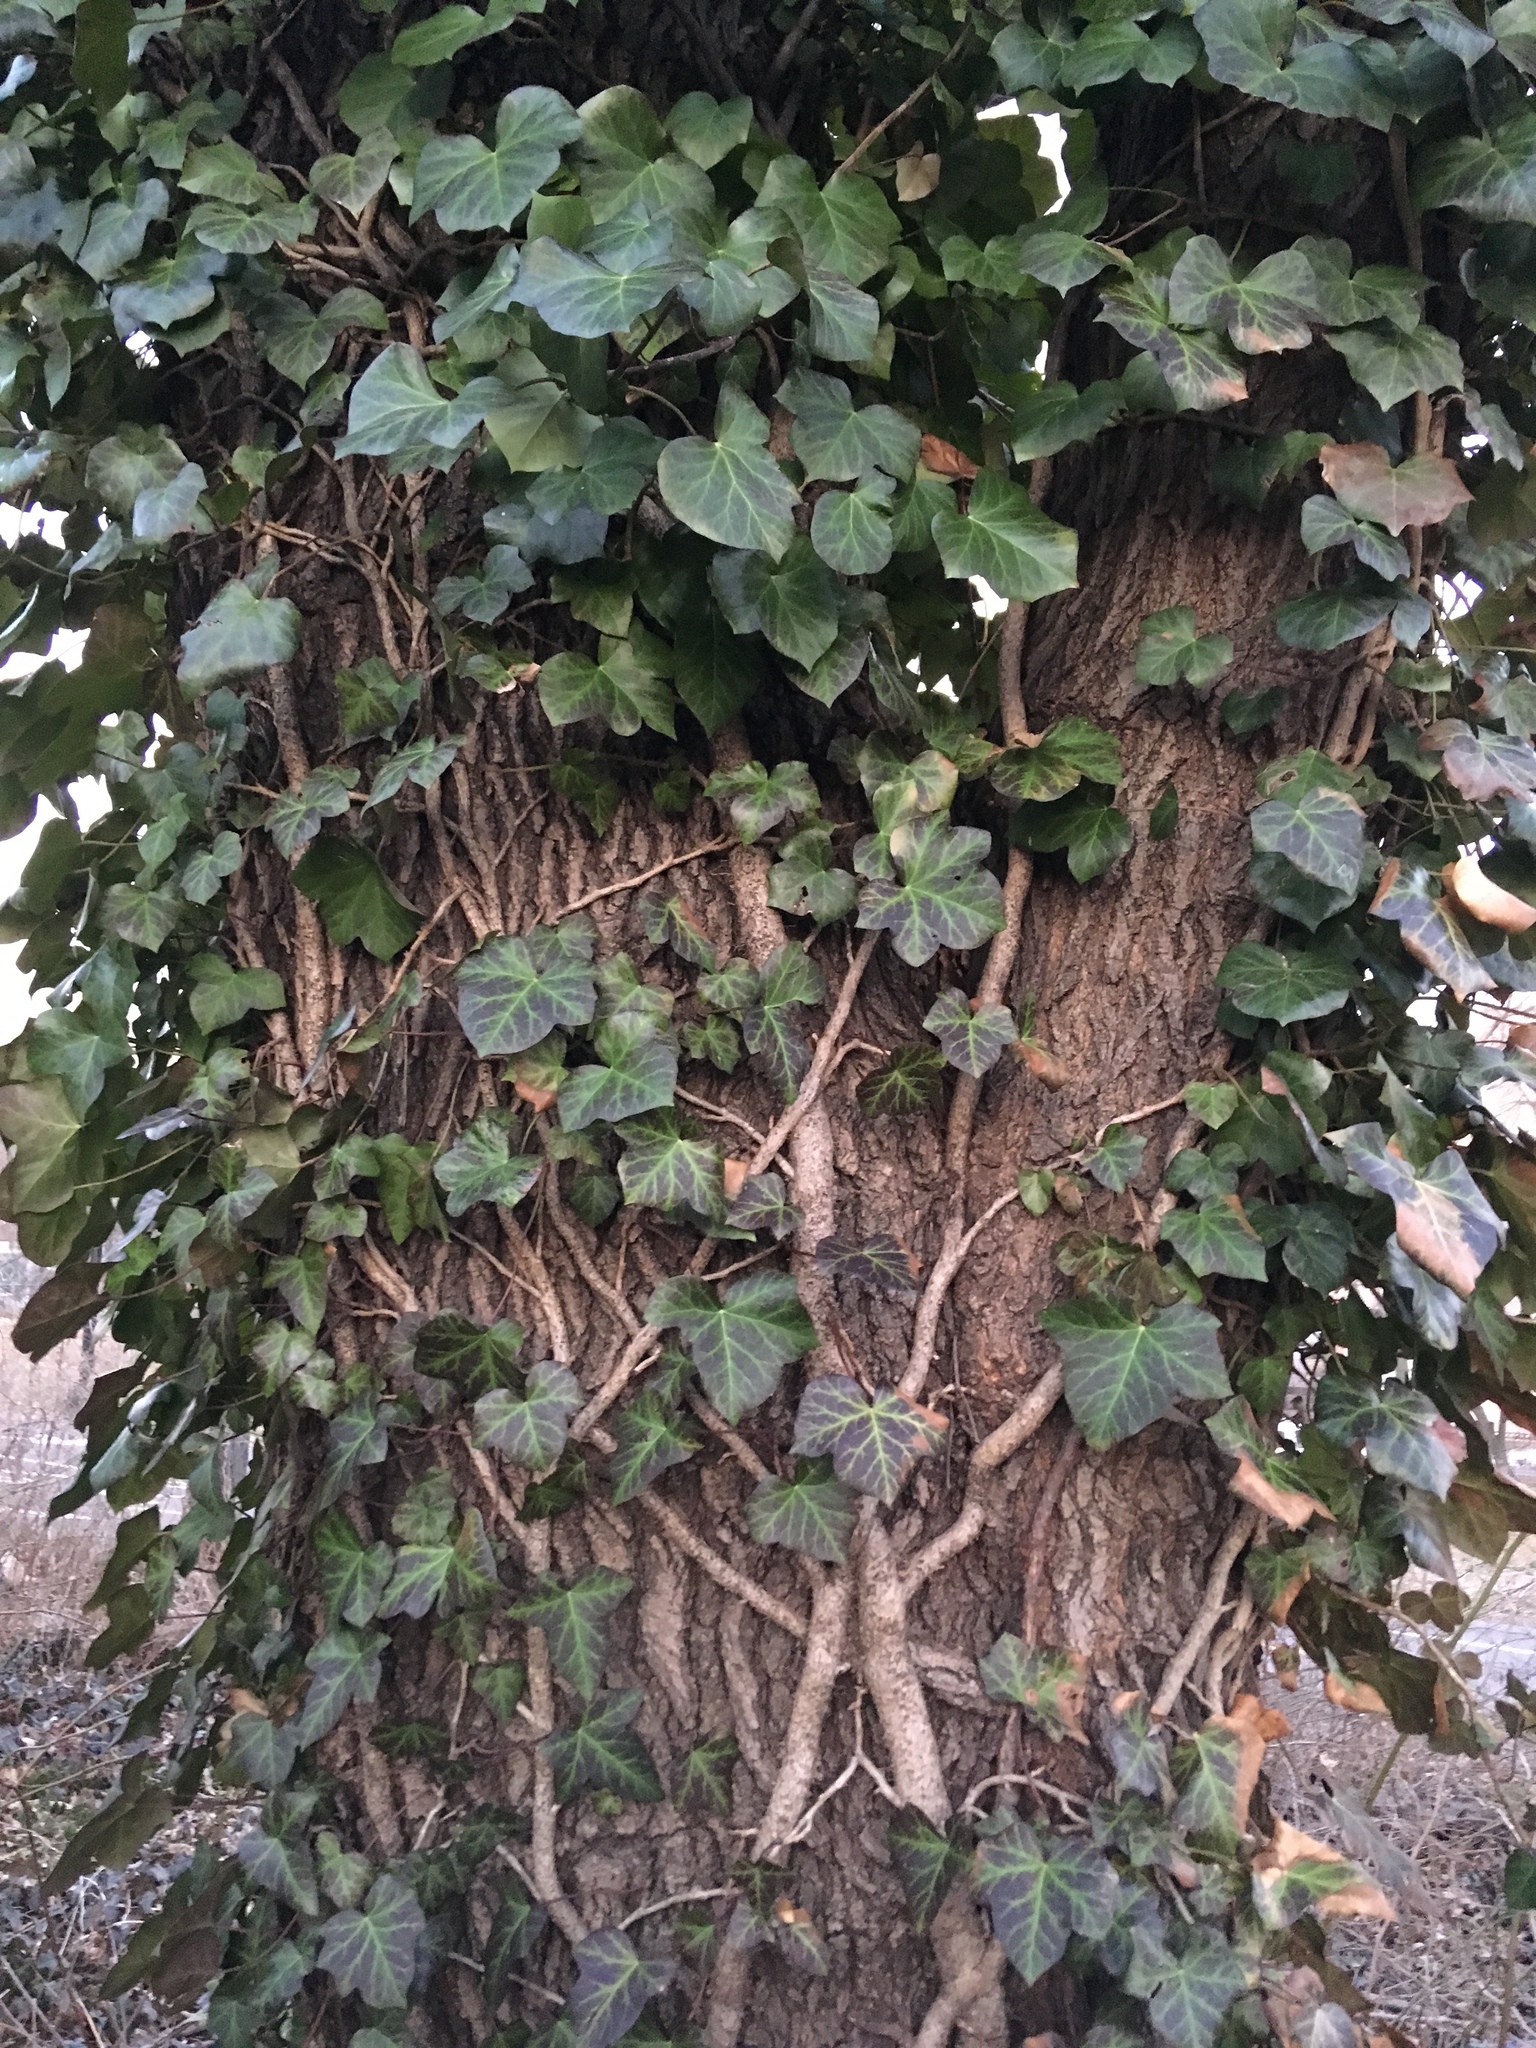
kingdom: Plantae
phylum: Tracheophyta
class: Magnoliopsida
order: Apiales
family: Araliaceae
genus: Hedera
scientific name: Hedera helix
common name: Ivy
